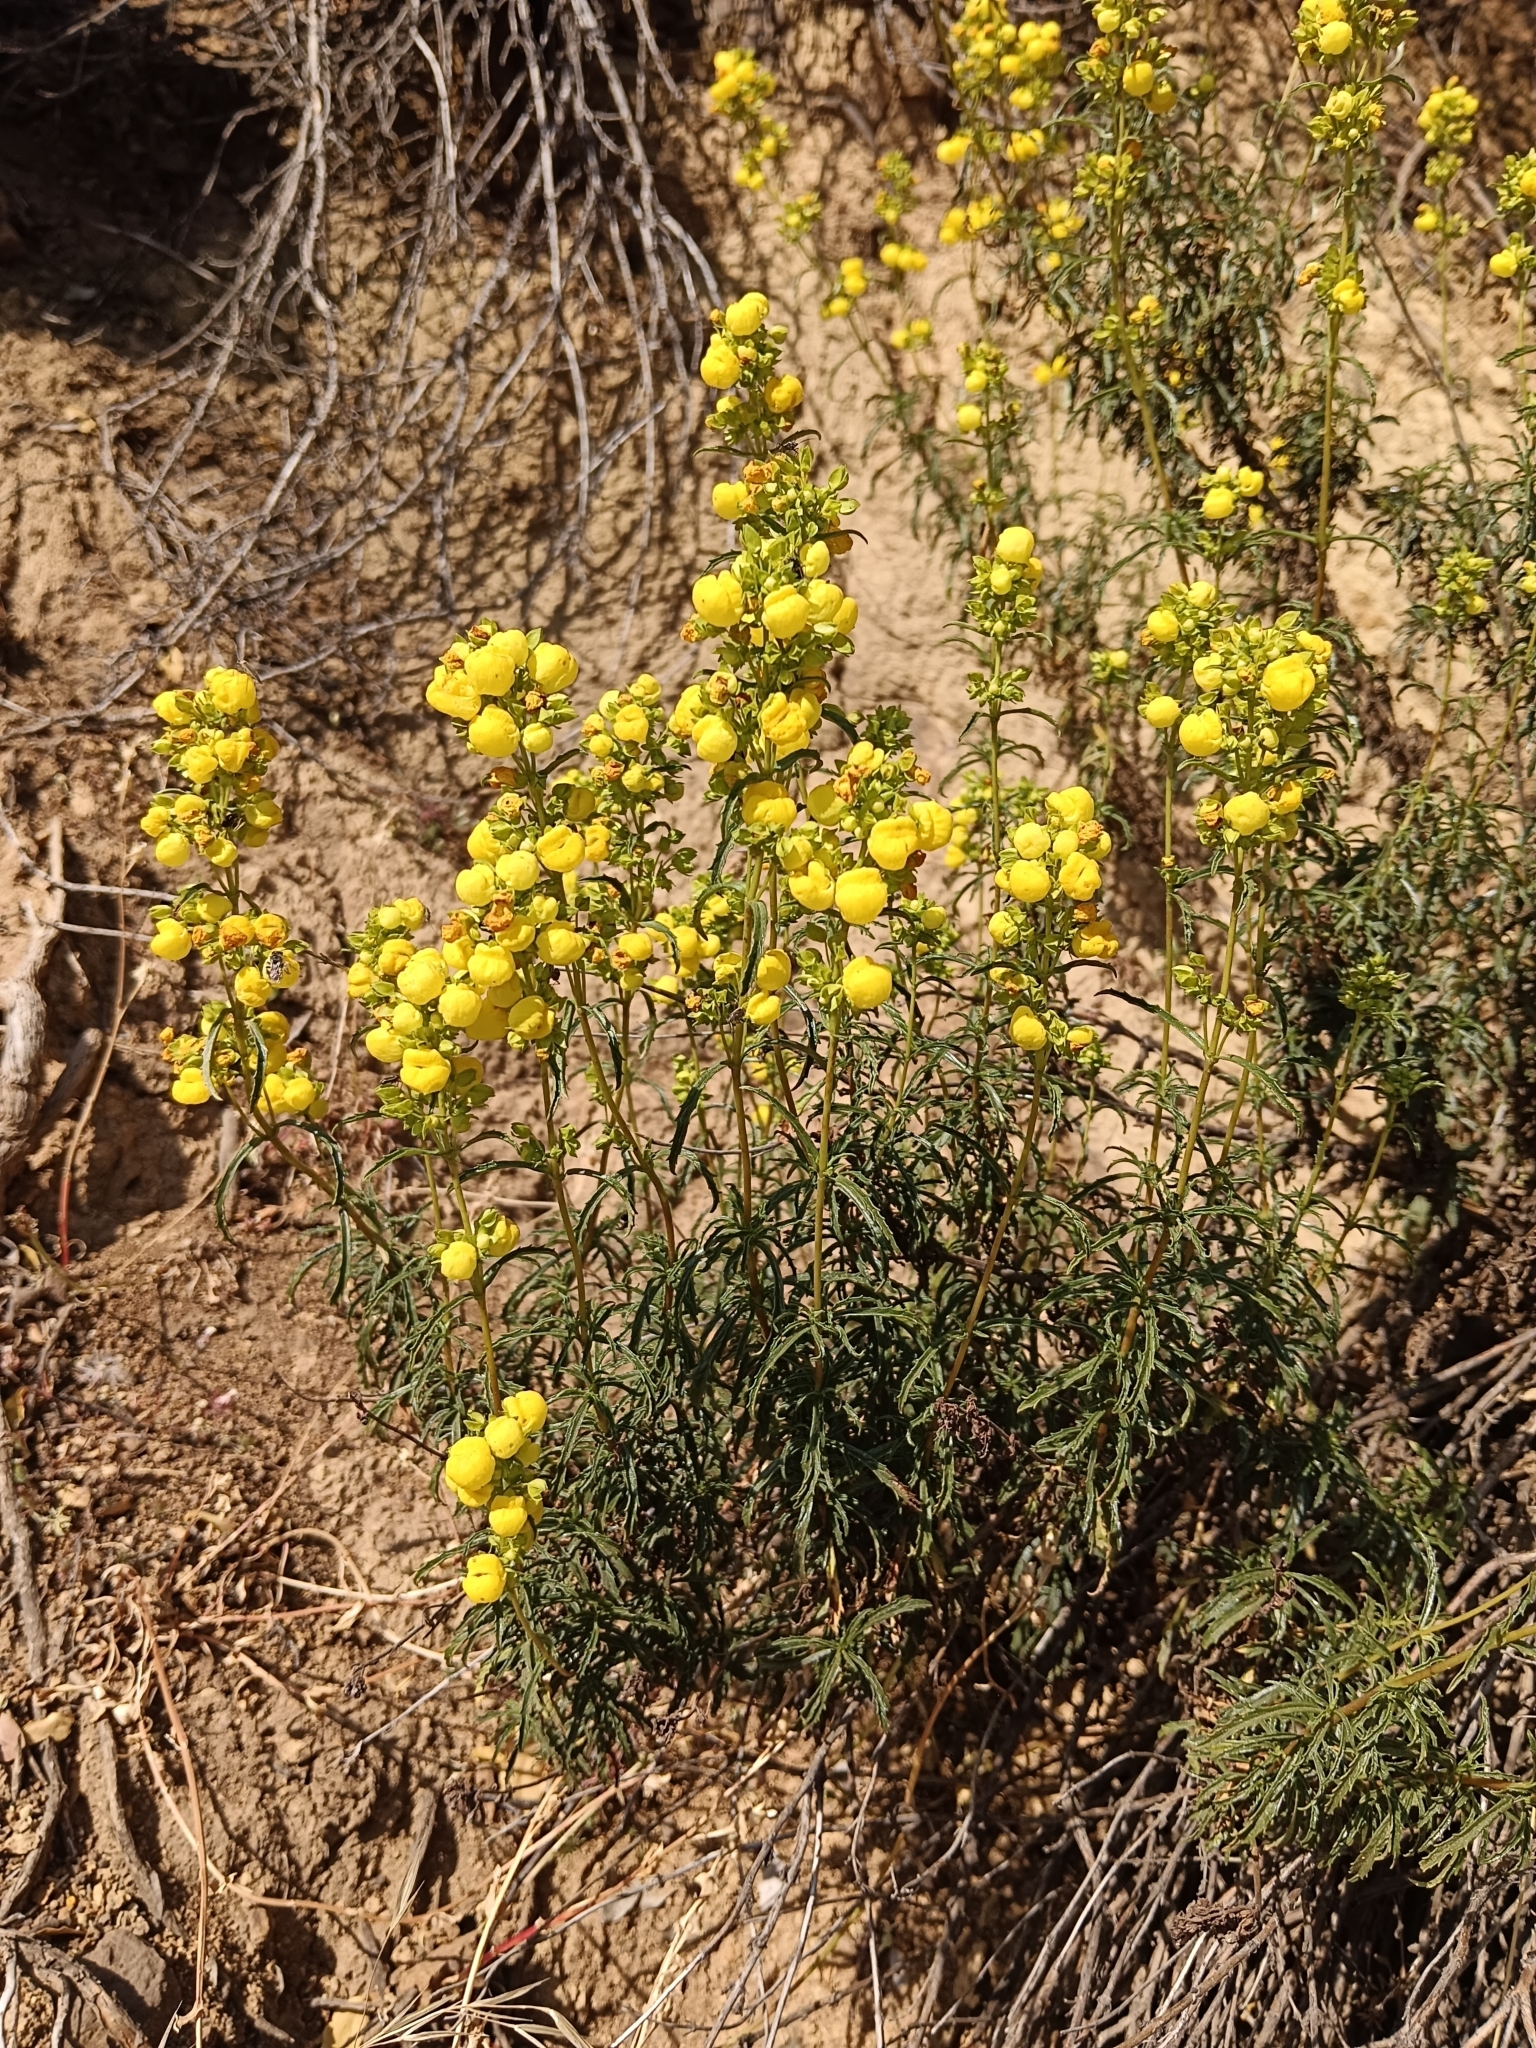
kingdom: Plantae
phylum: Tracheophyta
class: Magnoliopsida
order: Lamiales
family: Calceolariaceae
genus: Calceolaria
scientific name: Calceolaria thyrsiflora
